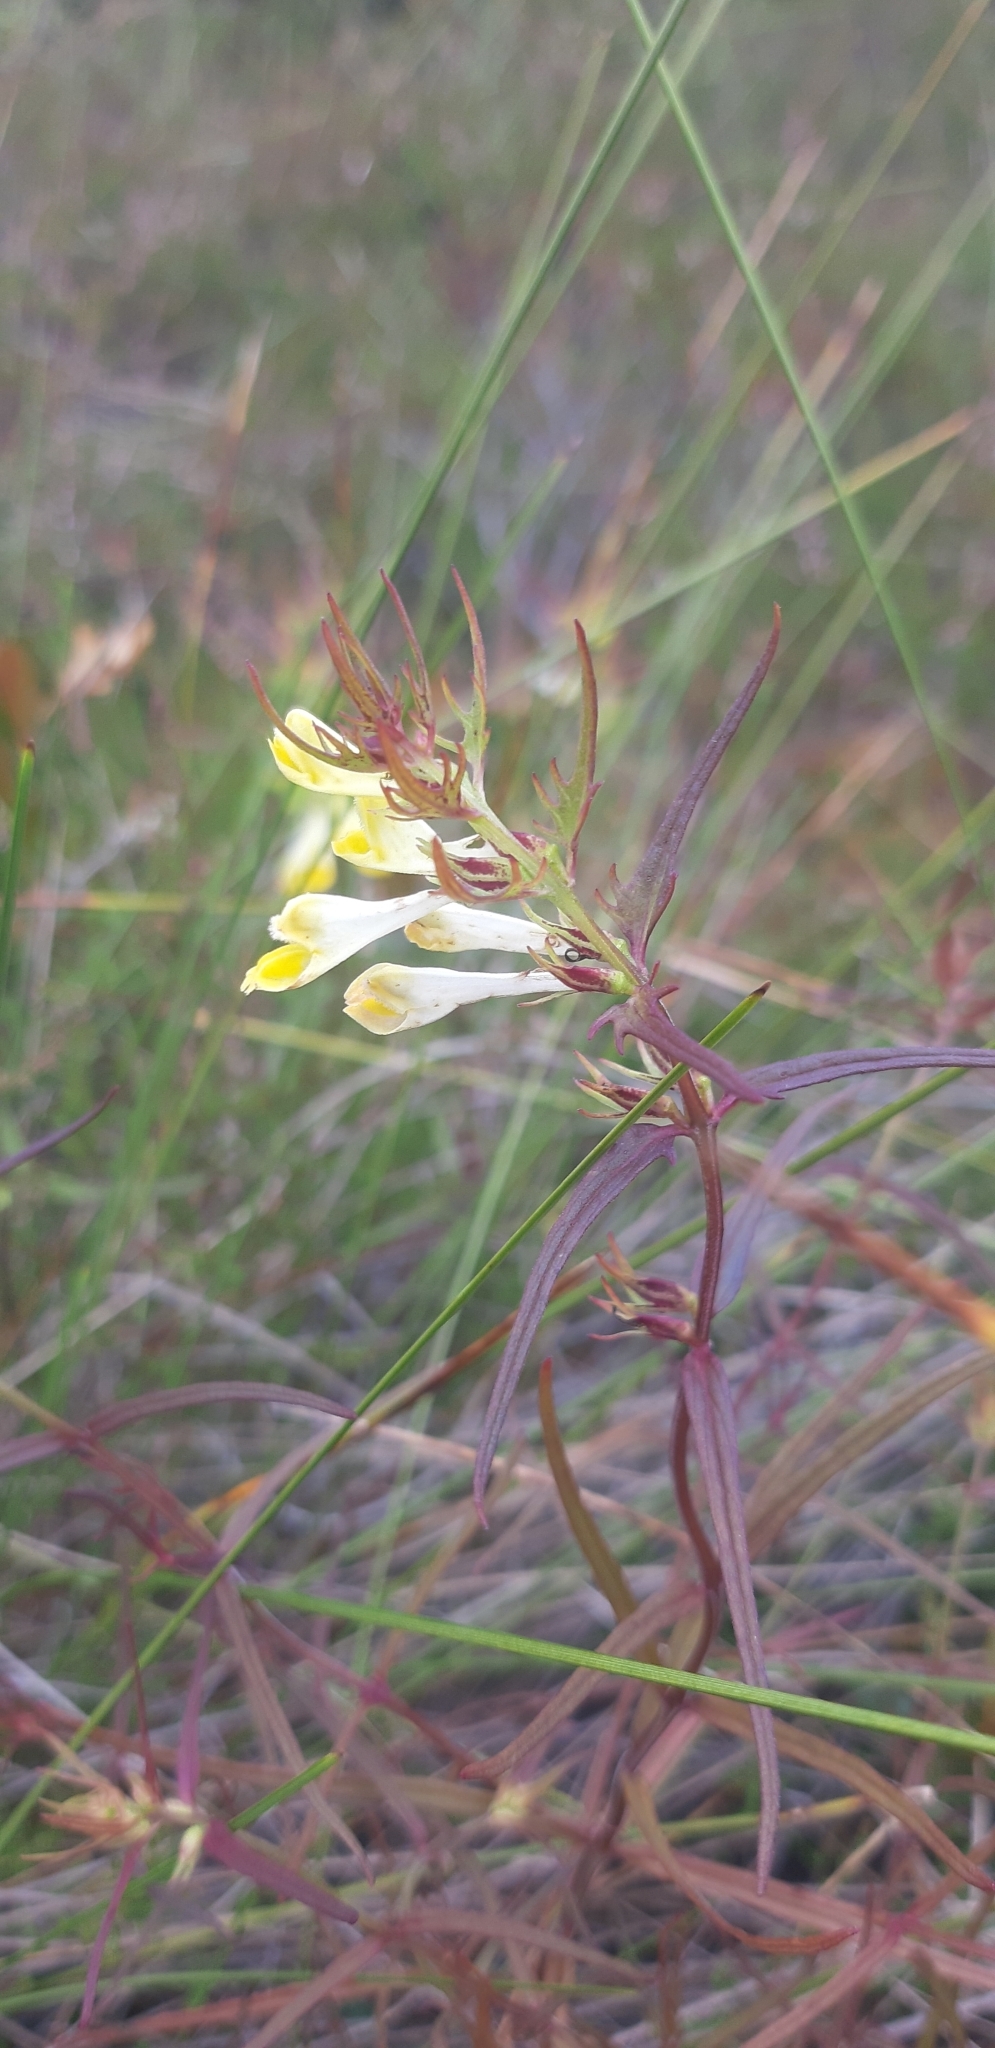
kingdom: Plantae
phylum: Tracheophyta
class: Magnoliopsida
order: Lamiales
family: Orobanchaceae
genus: Melampyrum
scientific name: Melampyrum pratense
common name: Common cow-wheat
